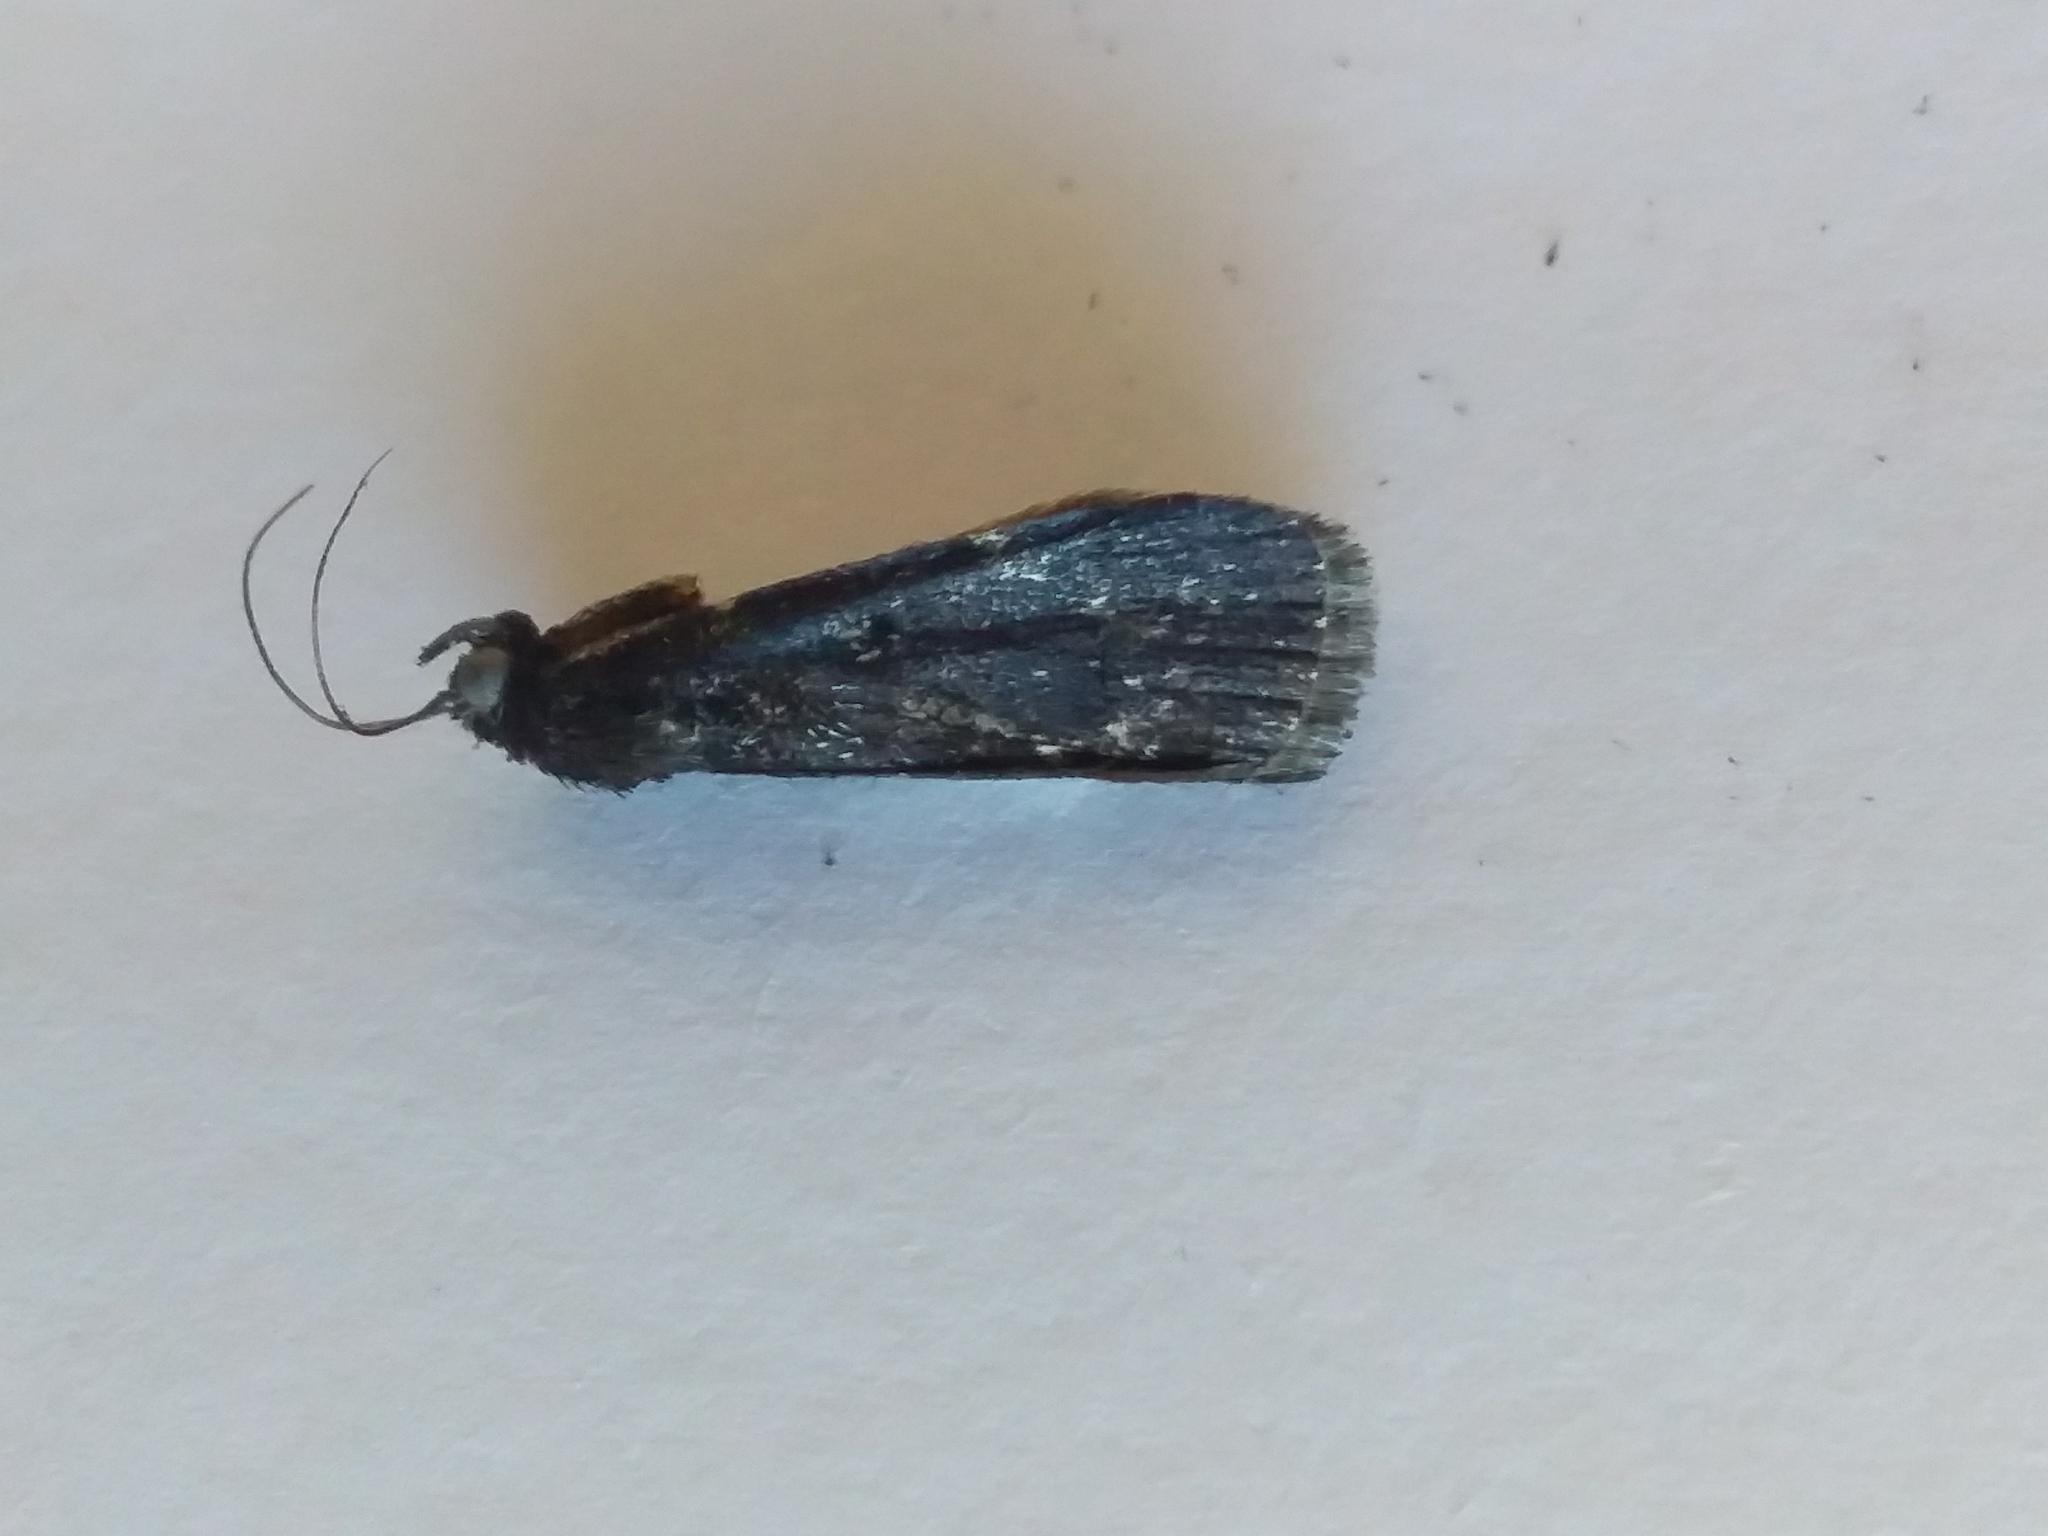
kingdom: Animalia
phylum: Arthropoda
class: Insecta
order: Lepidoptera
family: Pyralidae
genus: Stericta
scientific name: Stericta carbonalis
